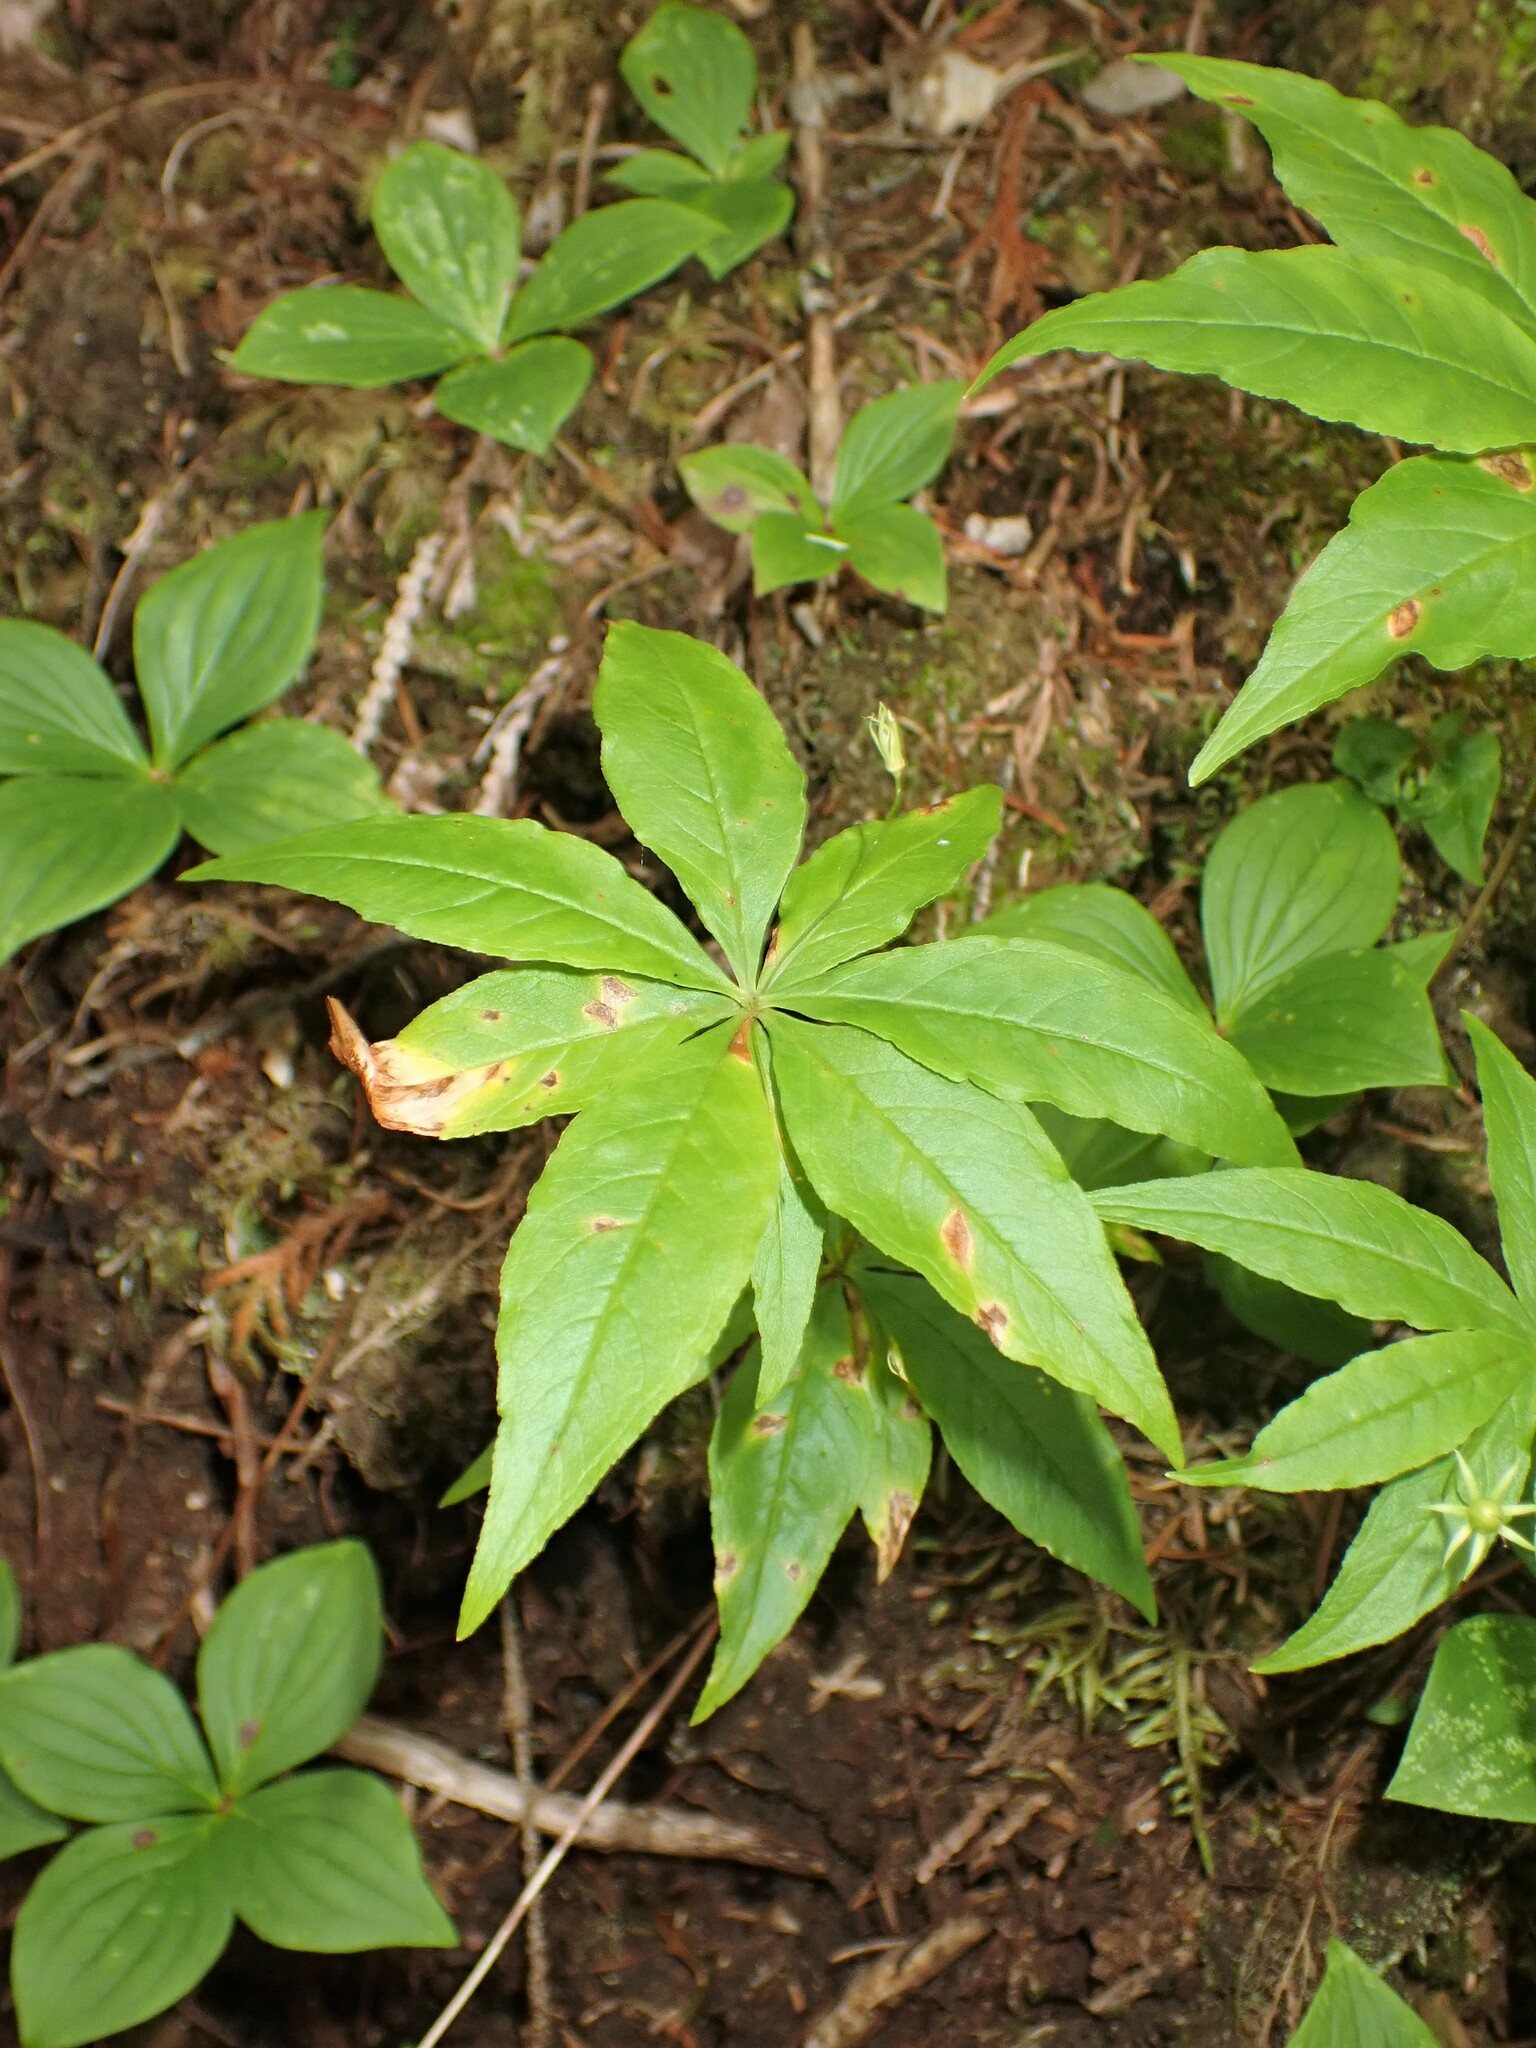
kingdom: Plantae
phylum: Tracheophyta
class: Magnoliopsida
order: Ericales
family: Primulaceae
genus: Lysimachia
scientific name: Lysimachia borealis
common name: American starflower
